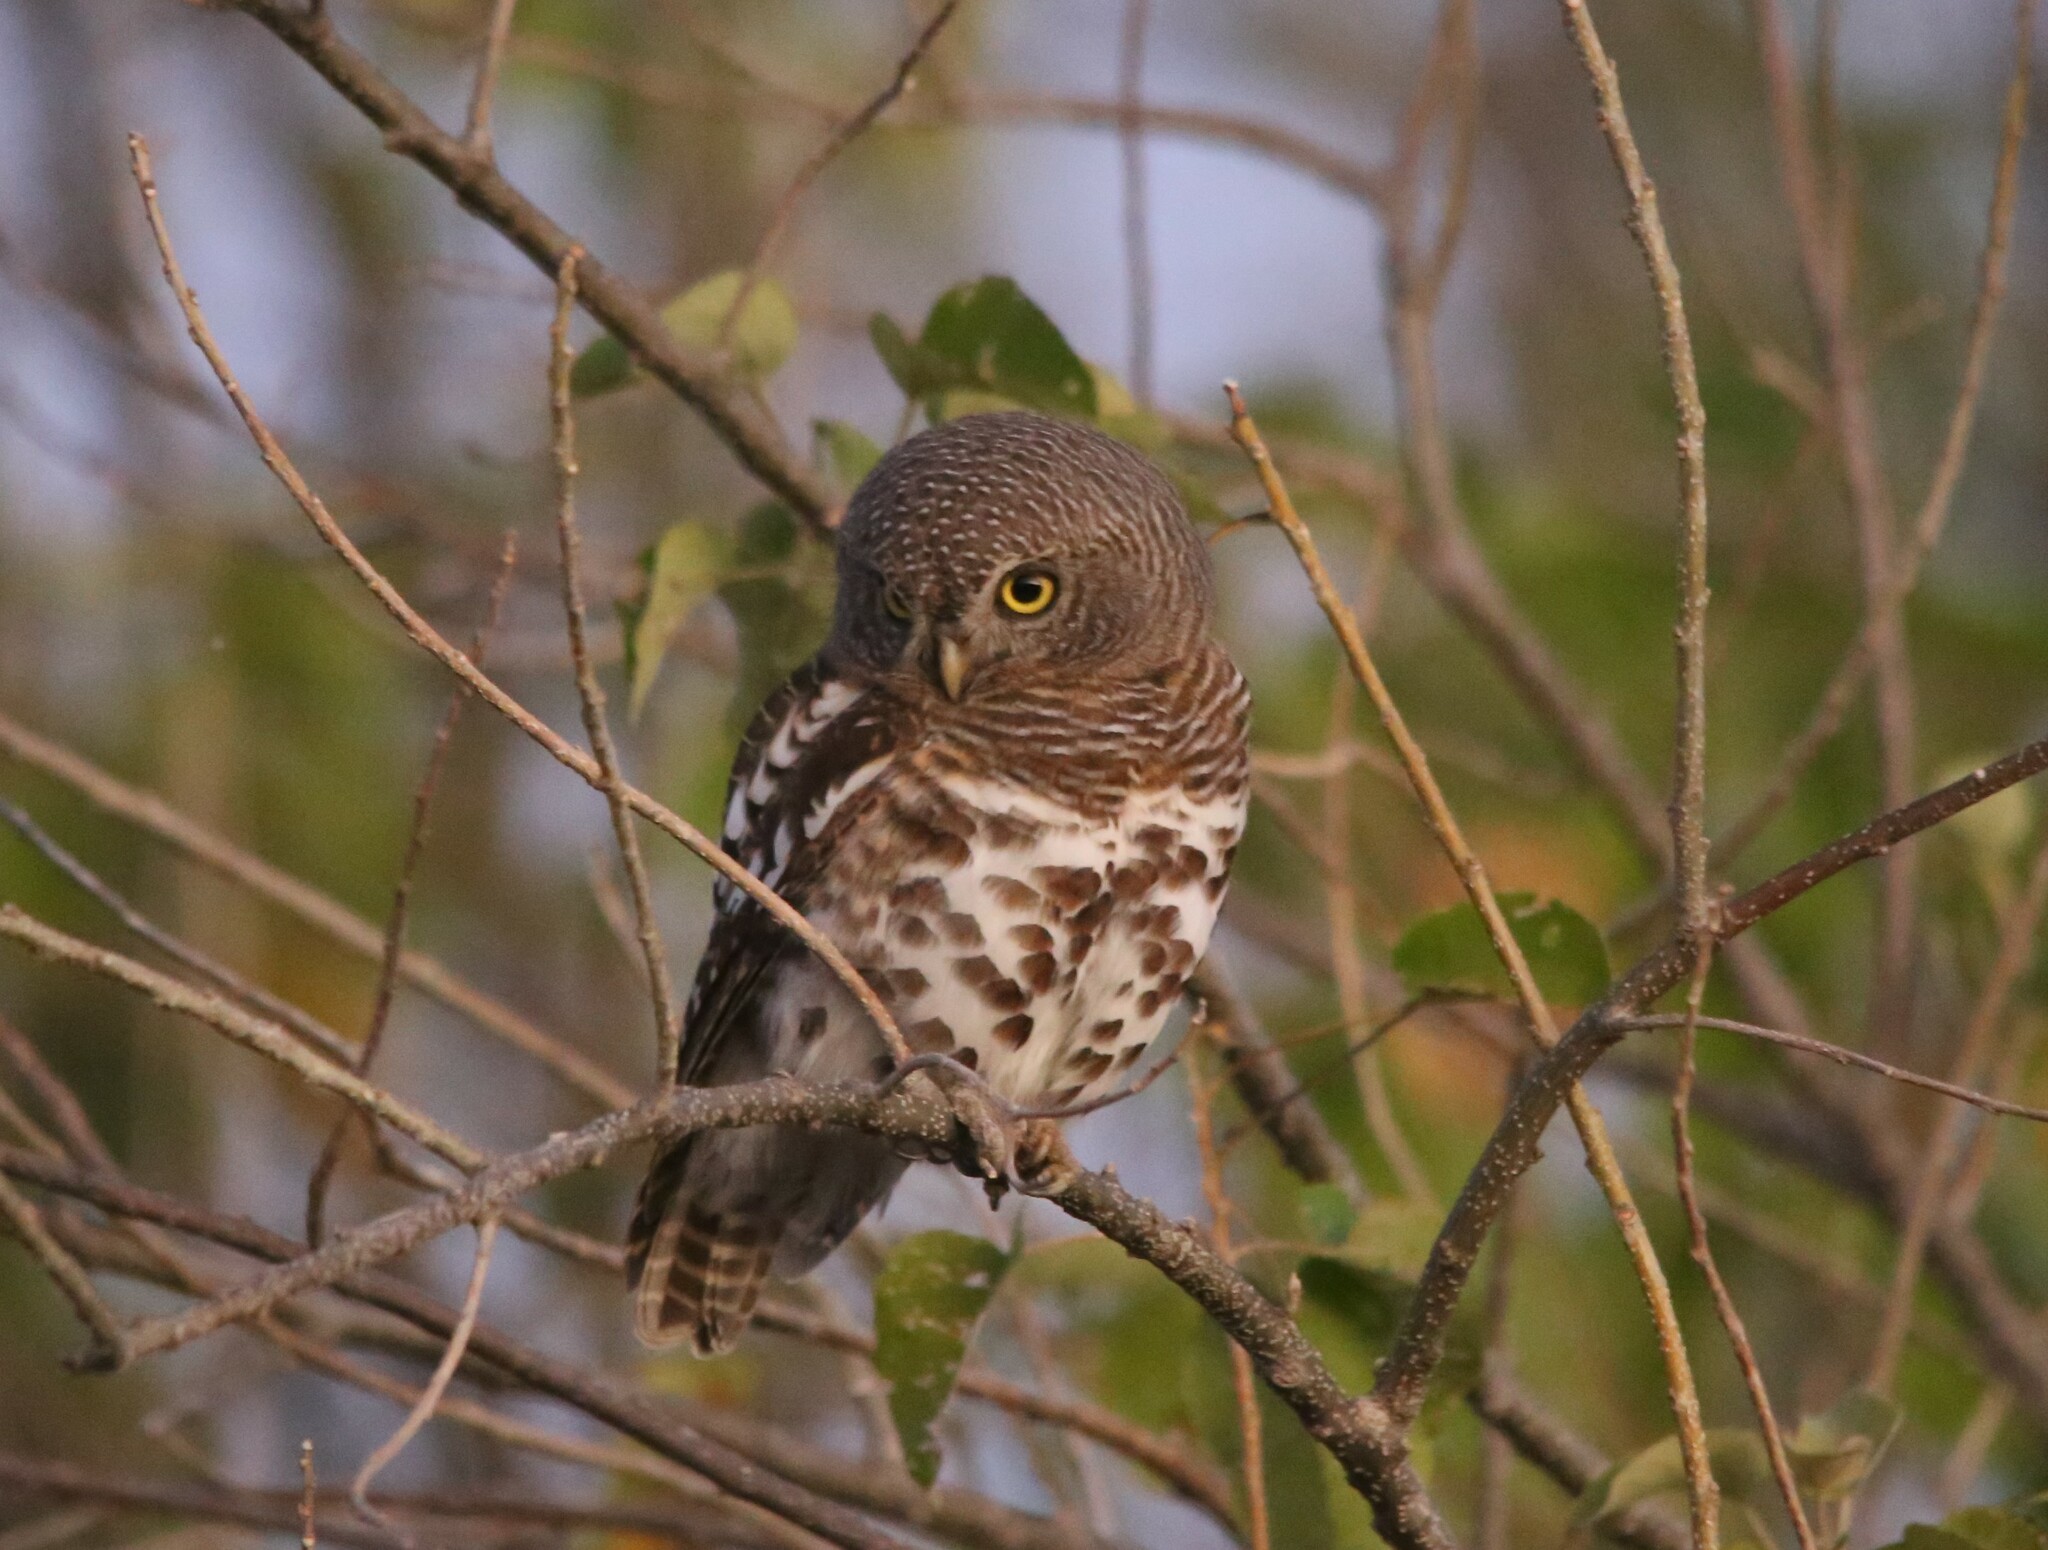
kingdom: Animalia
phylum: Chordata
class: Aves
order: Strigiformes
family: Strigidae
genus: Glaucidium
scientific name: Glaucidium capense
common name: African barred owlet
